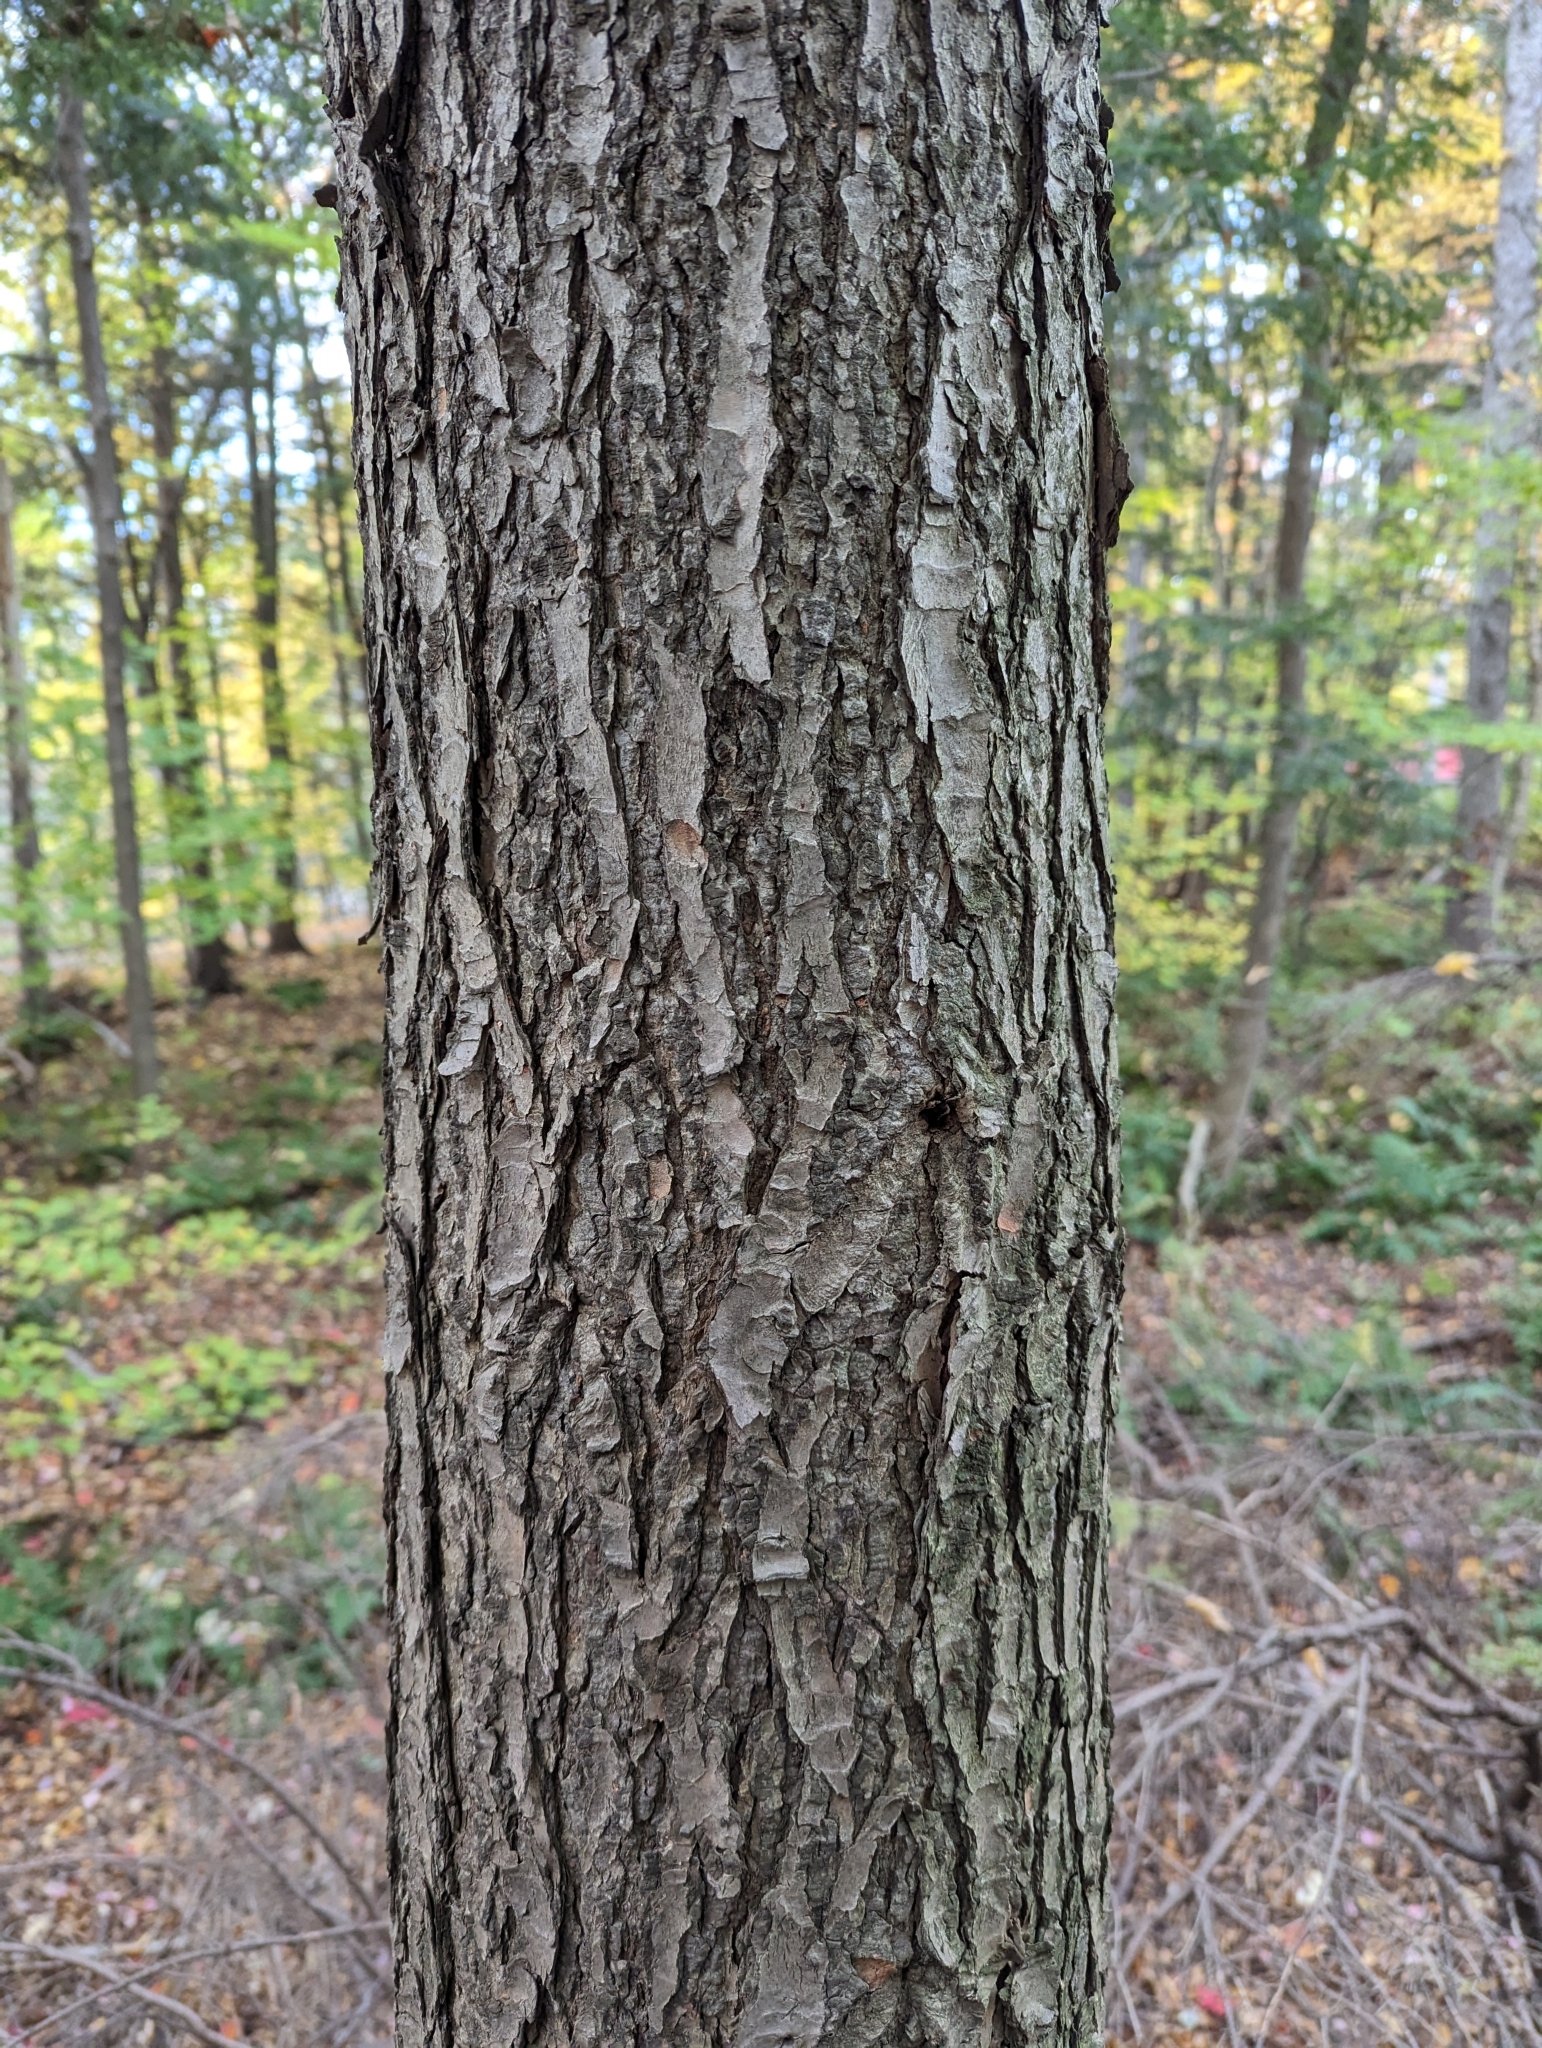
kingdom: Plantae
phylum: Tracheophyta
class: Pinopsida
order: Pinales
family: Pinaceae
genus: Tsuga
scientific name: Tsuga canadensis
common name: Eastern hemlock
